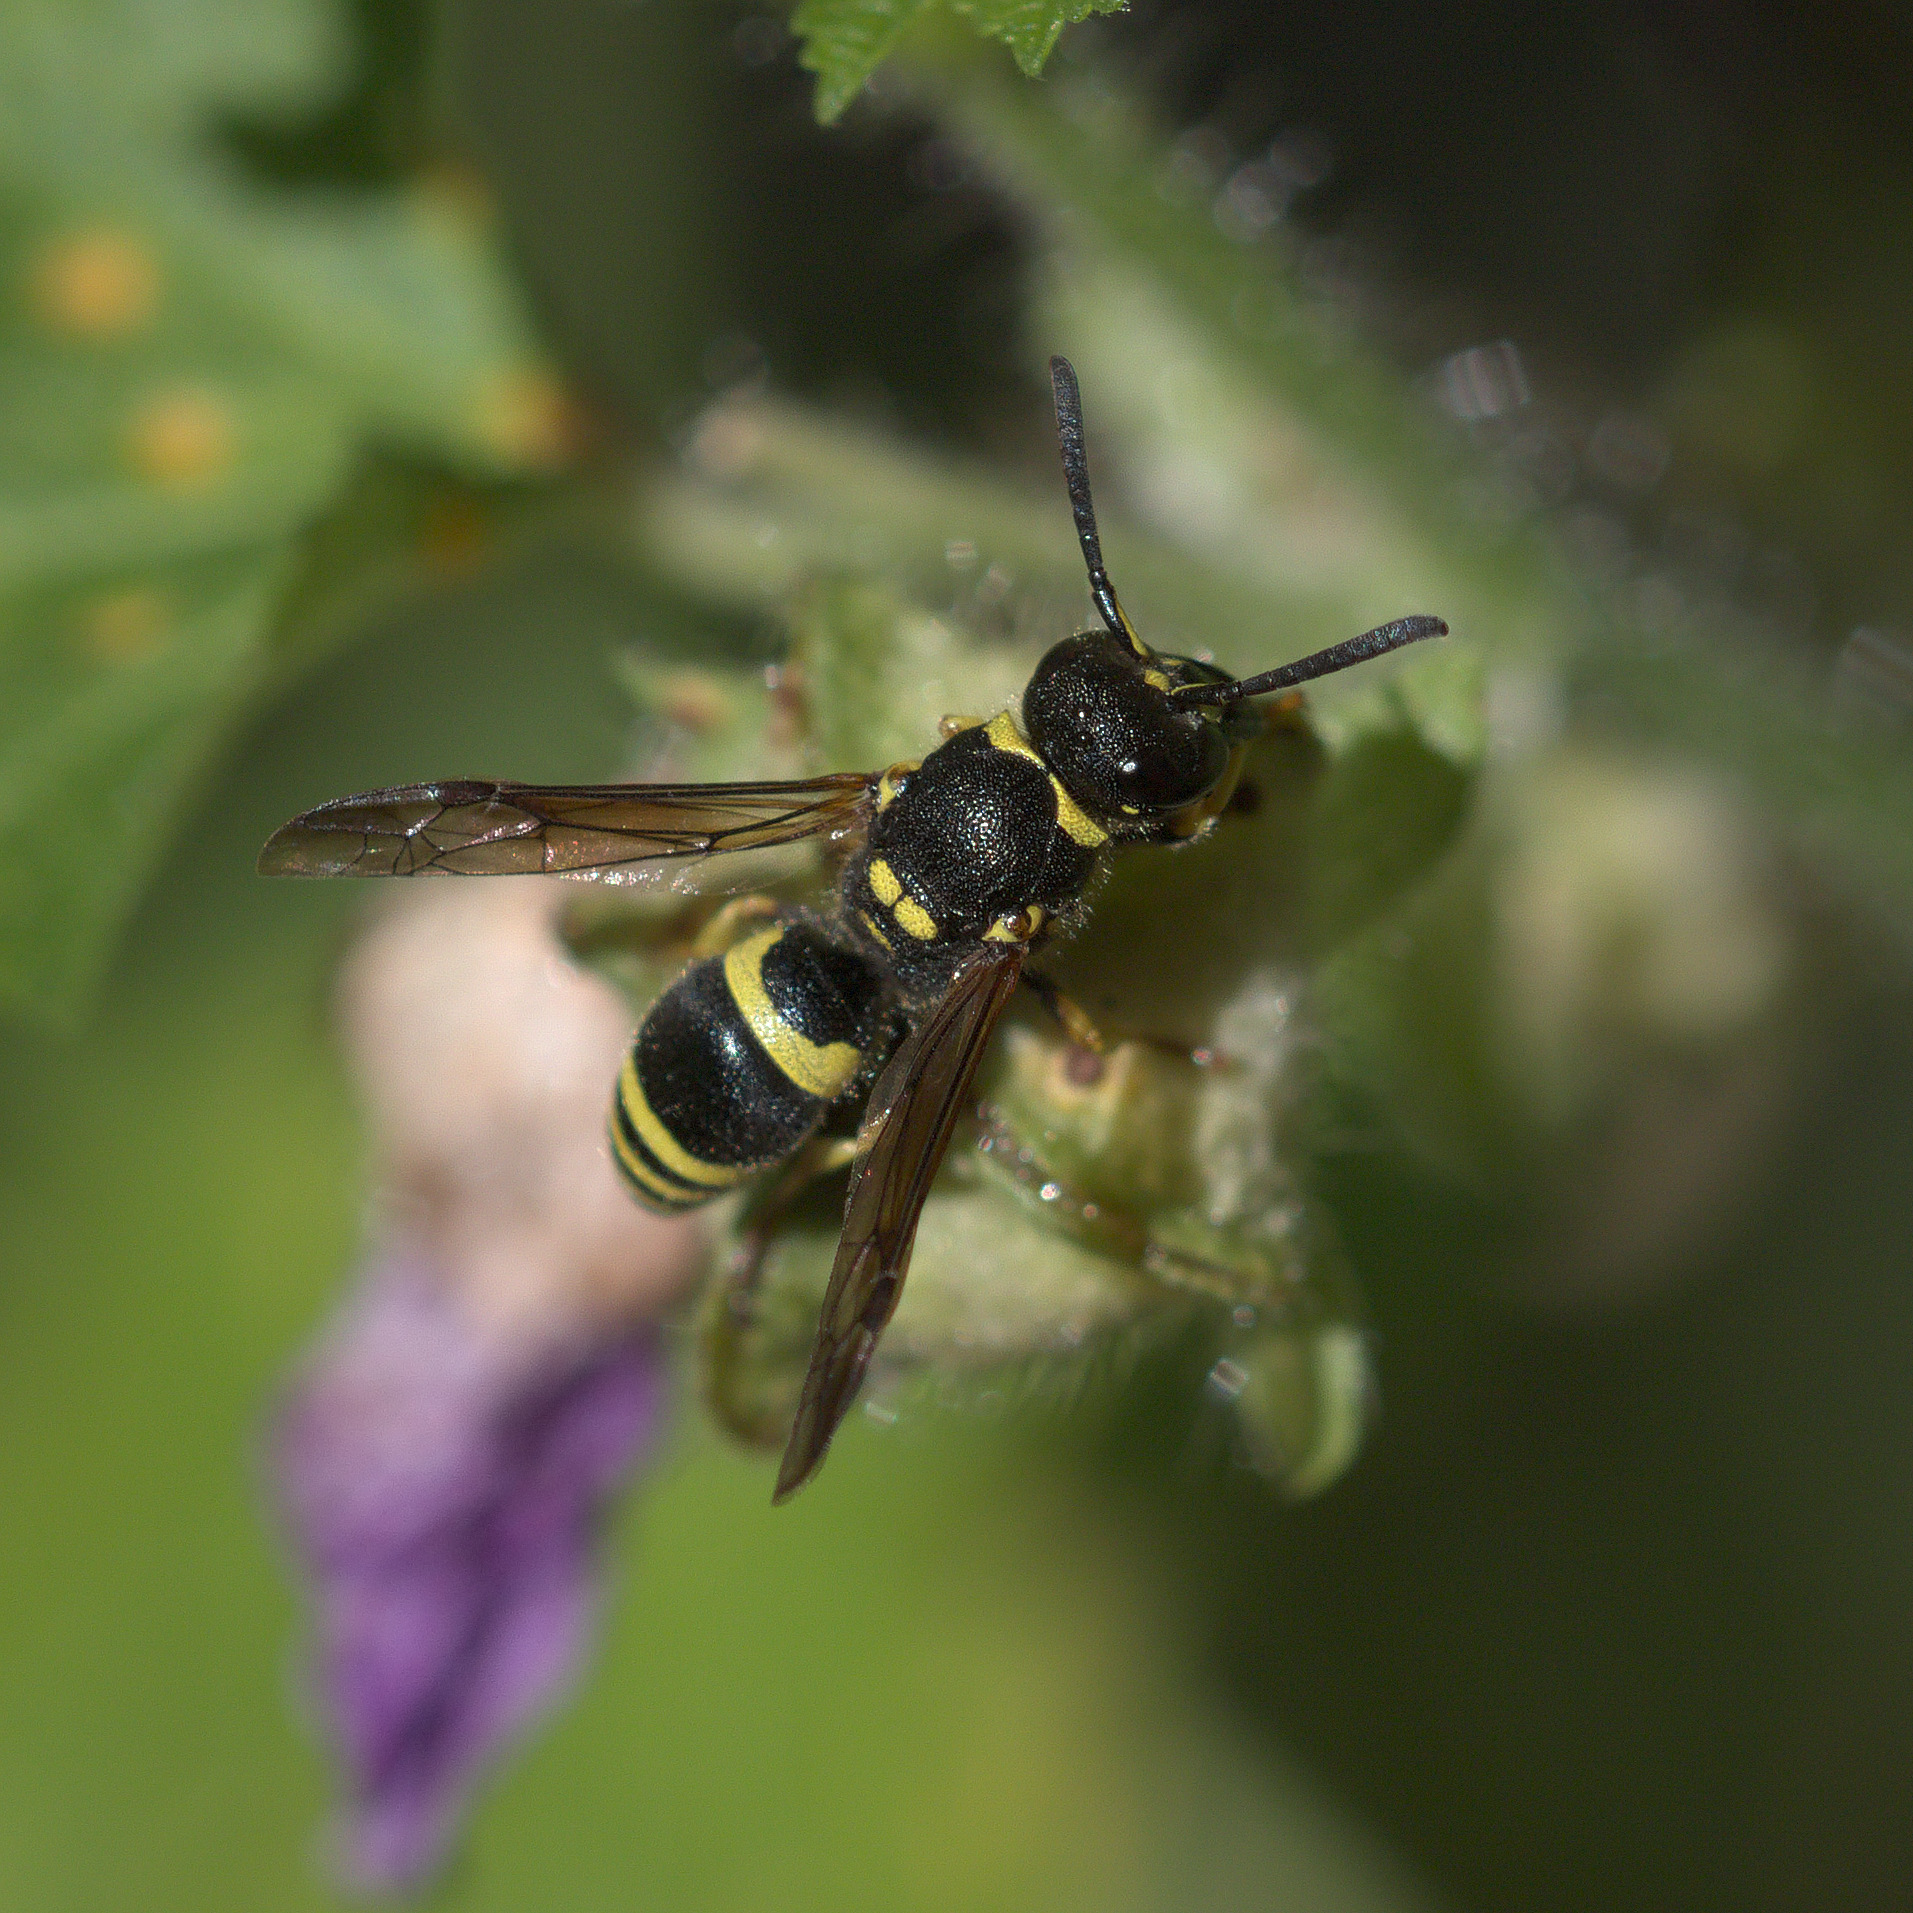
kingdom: Animalia
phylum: Arthropoda
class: Insecta
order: Hymenoptera
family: Vespidae
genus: Ancistrocerus
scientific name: Ancistrocerus gazella
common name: European tube wasp
